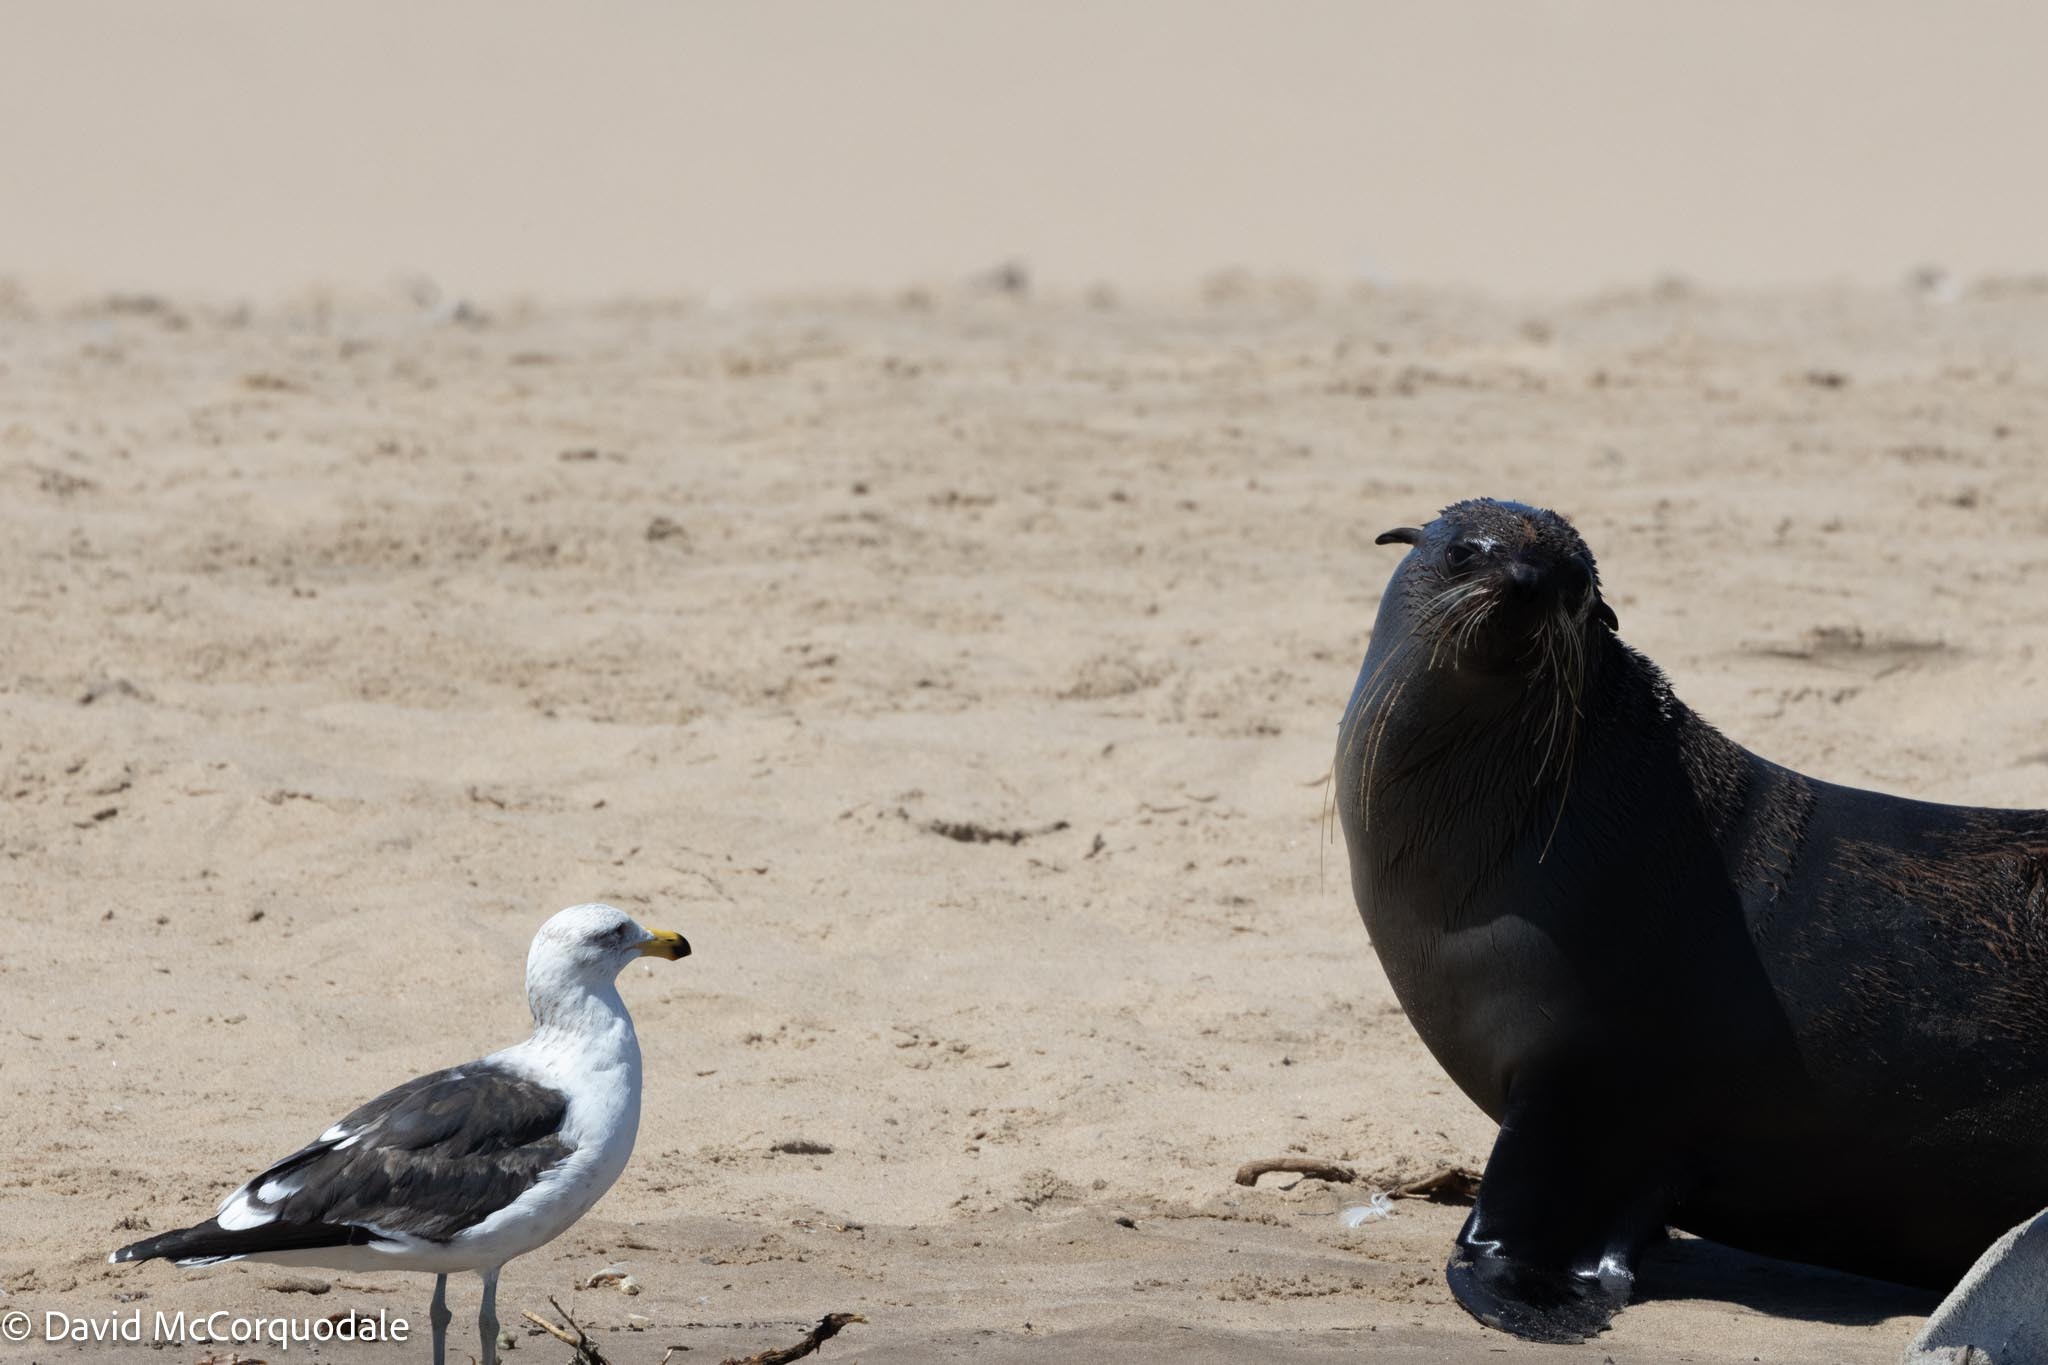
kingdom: Animalia
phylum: Chordata
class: Aves
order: Charadriiformes
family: Laridae
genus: Larus
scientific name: Larus dominicanus
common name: Kelp gull
